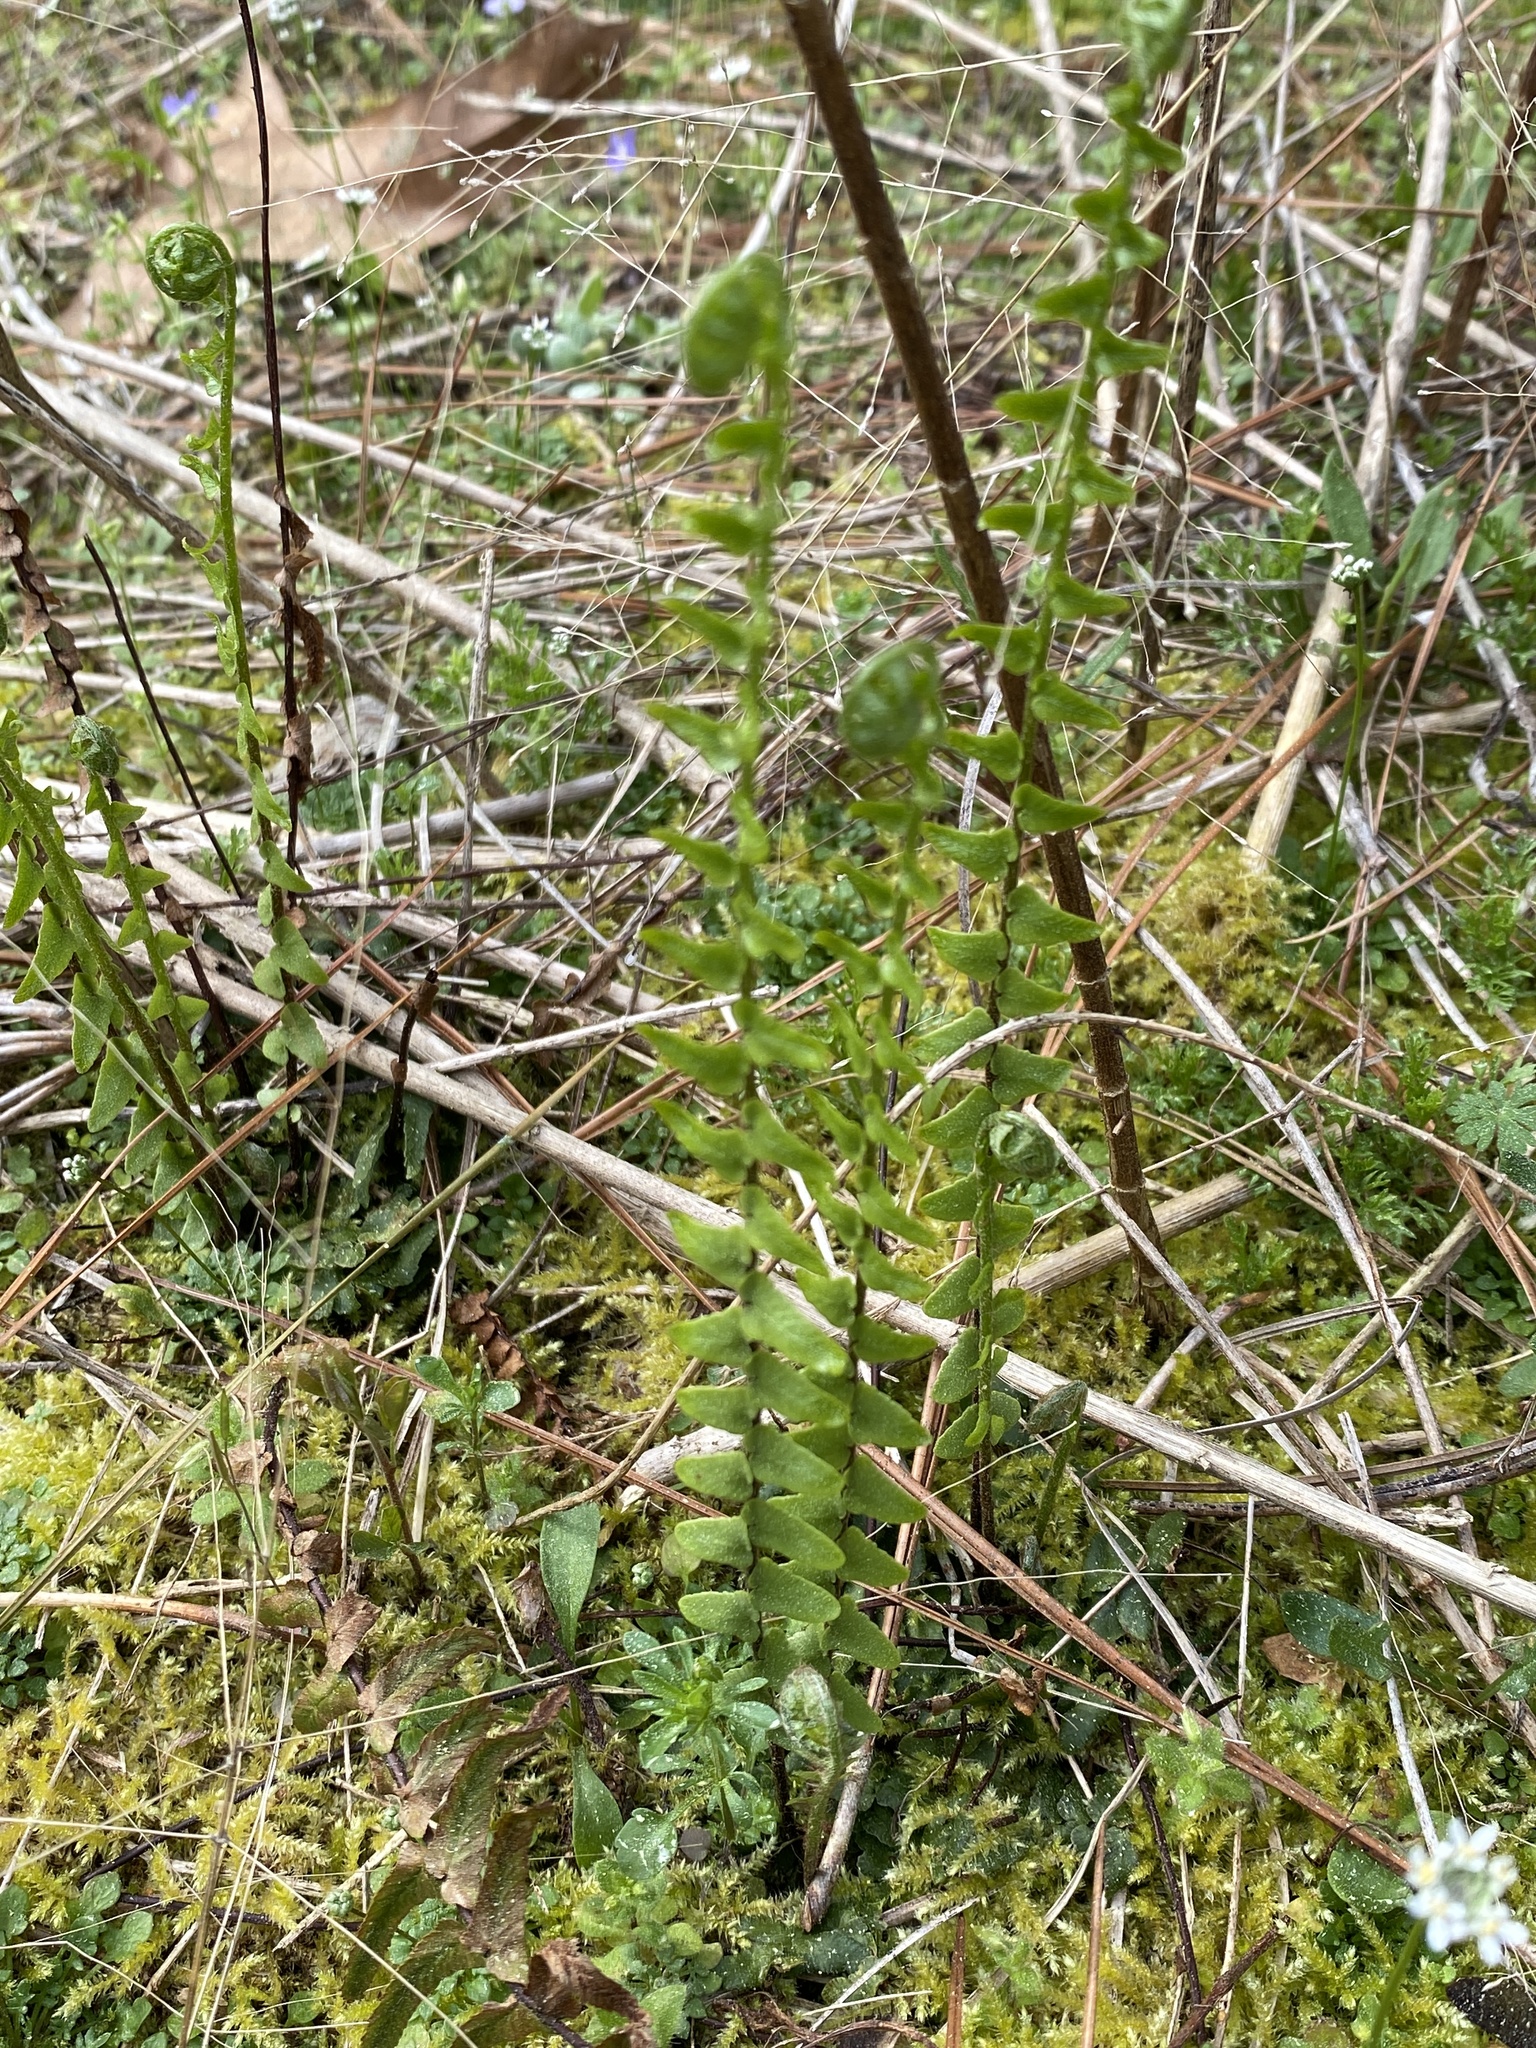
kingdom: Plantae
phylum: Tracheophyta
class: Polypodiopsida
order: Polypodiales
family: Aspleniaceae
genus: Asplenium
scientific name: Asplenium platyneuron
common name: Ebony spleenwort
